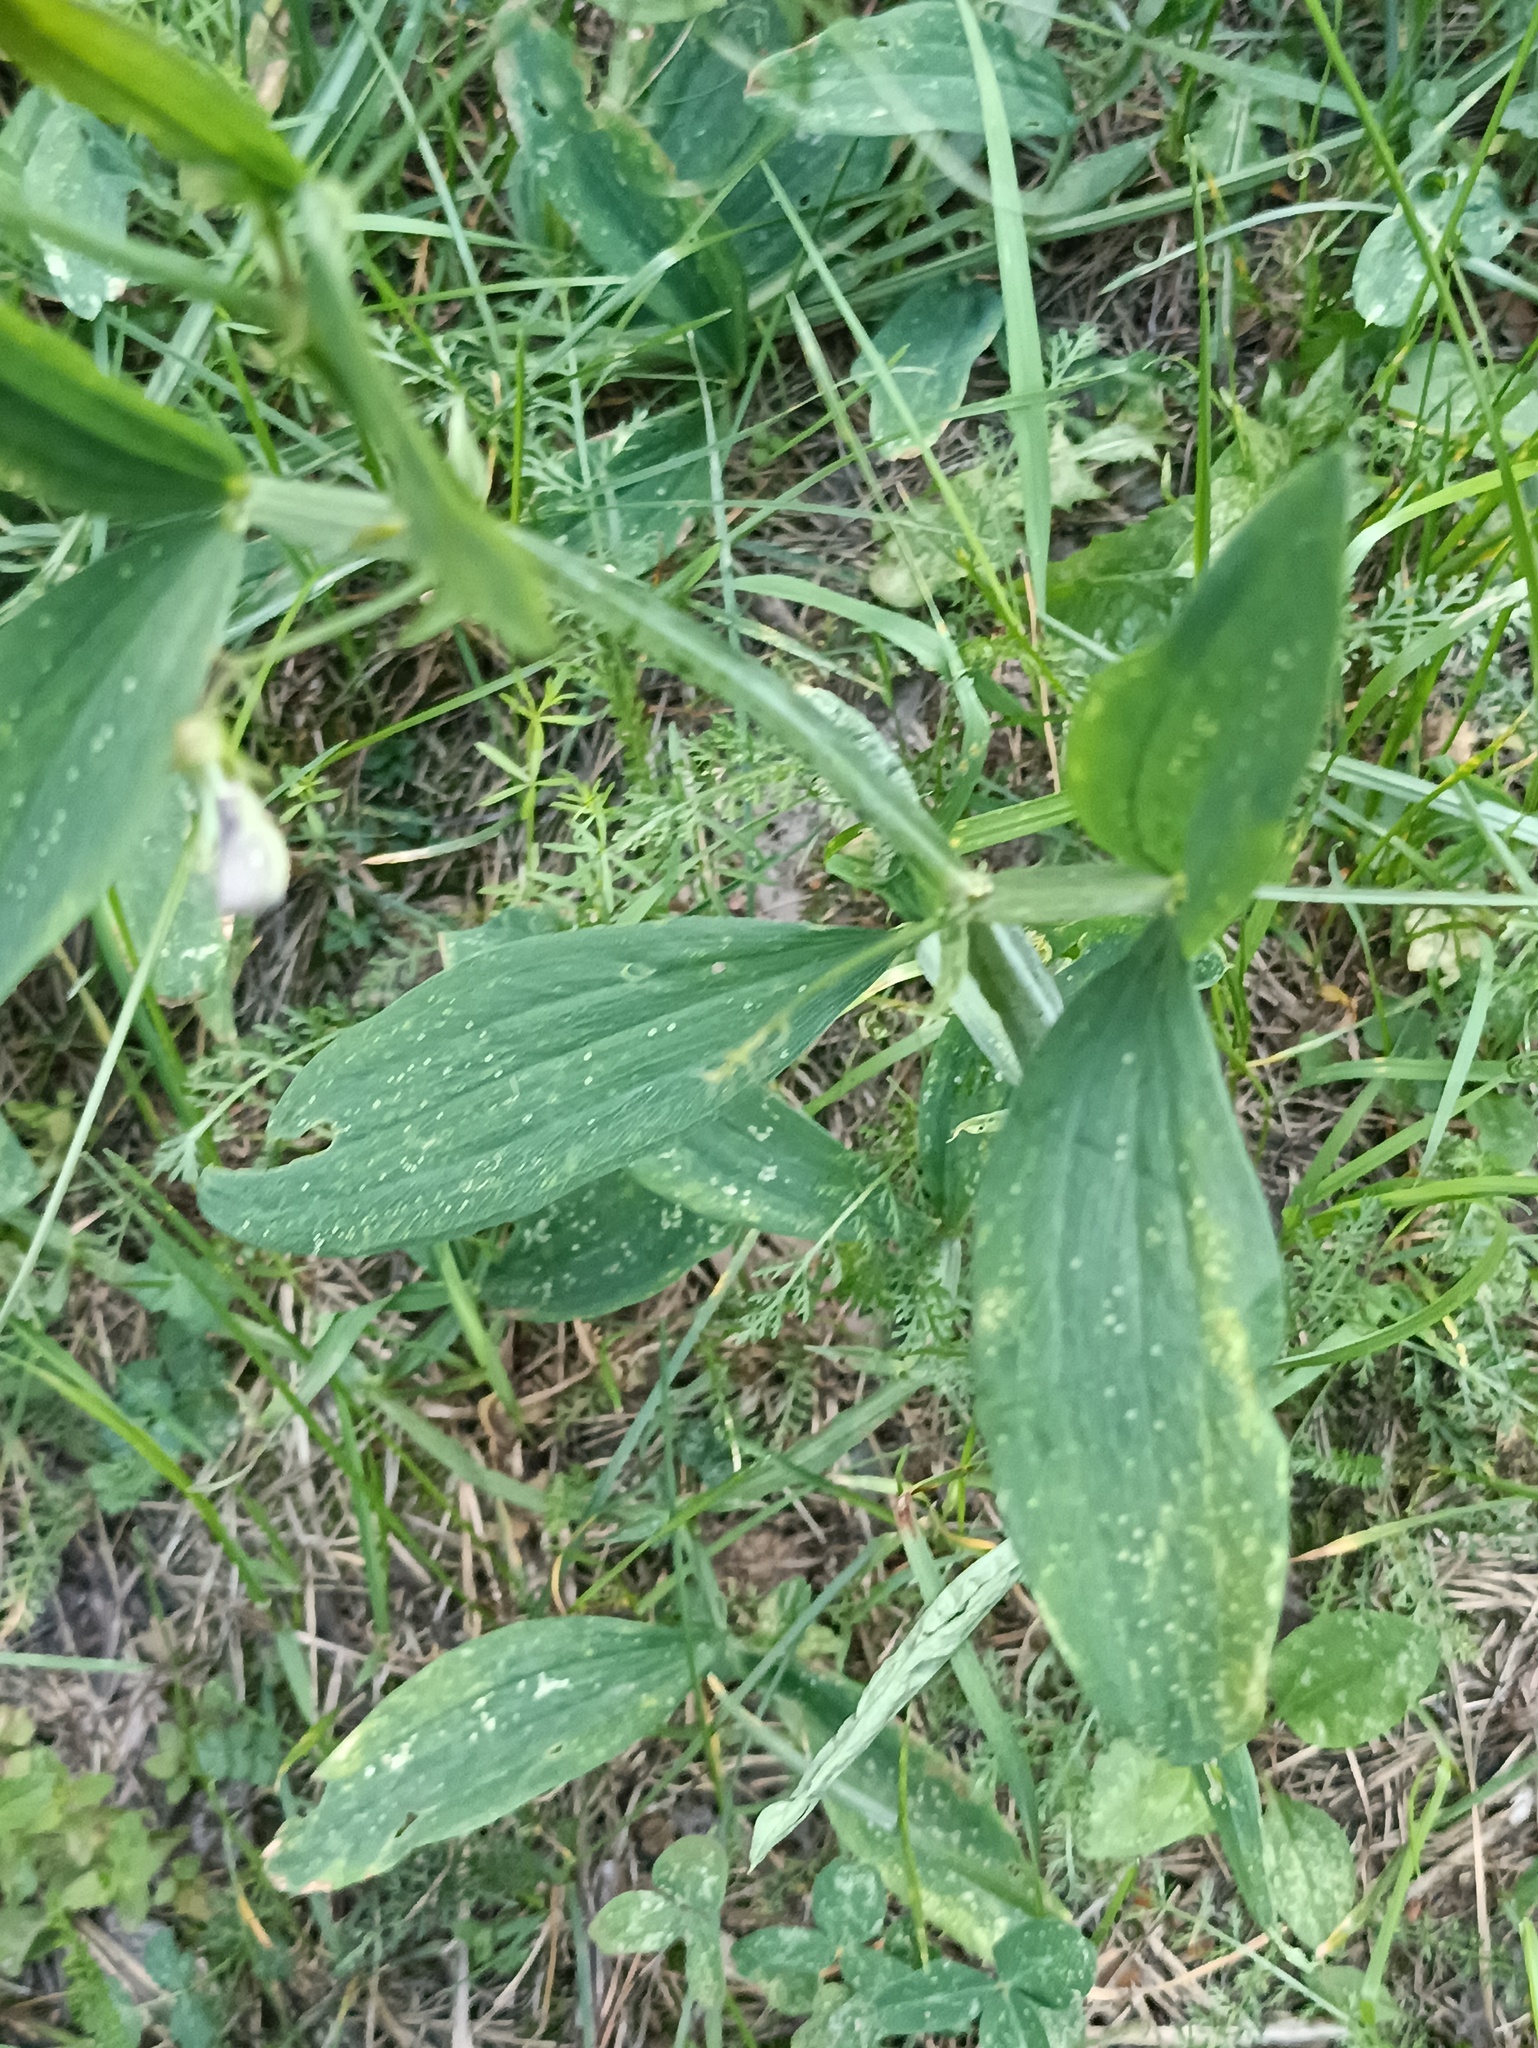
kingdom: Plantae
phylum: Tracheophyta
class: Magnoliopsida
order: Fabales
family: Fabaceae
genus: Lathyrus
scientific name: Lathyrus sylvestris
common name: Flat pea
